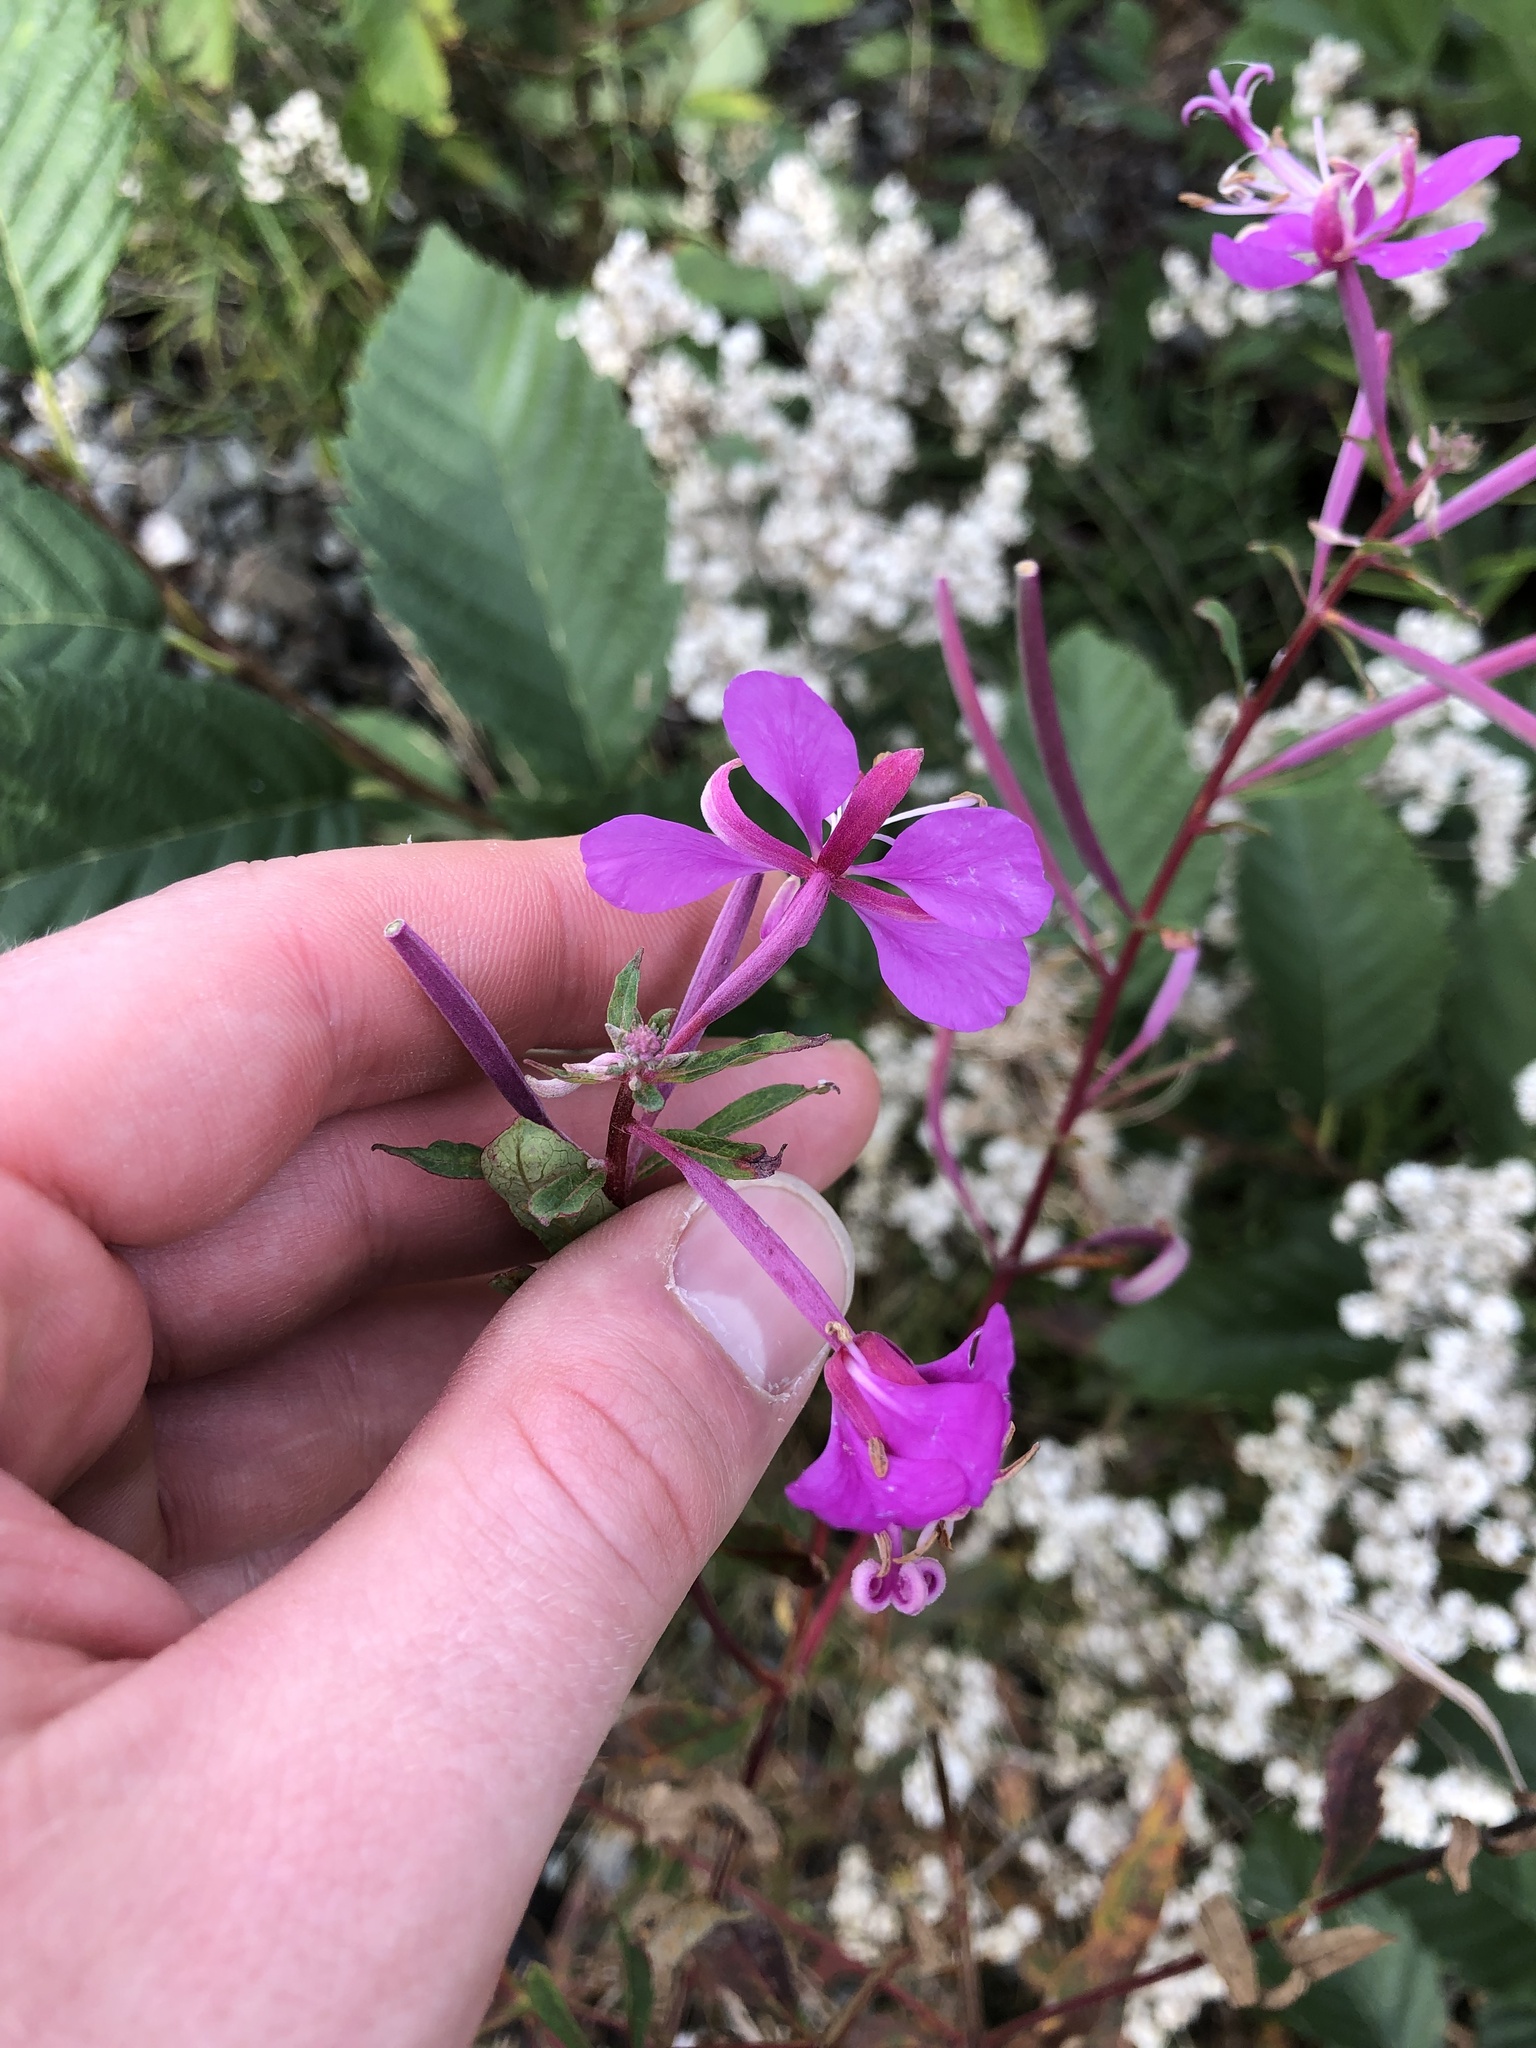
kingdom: Plantae
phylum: Tracheophyta
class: Magnoliopsida
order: Myrtales
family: Onagraceae
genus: Chamaenerion
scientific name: Chamaenerion angustifolium
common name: Fireweed
